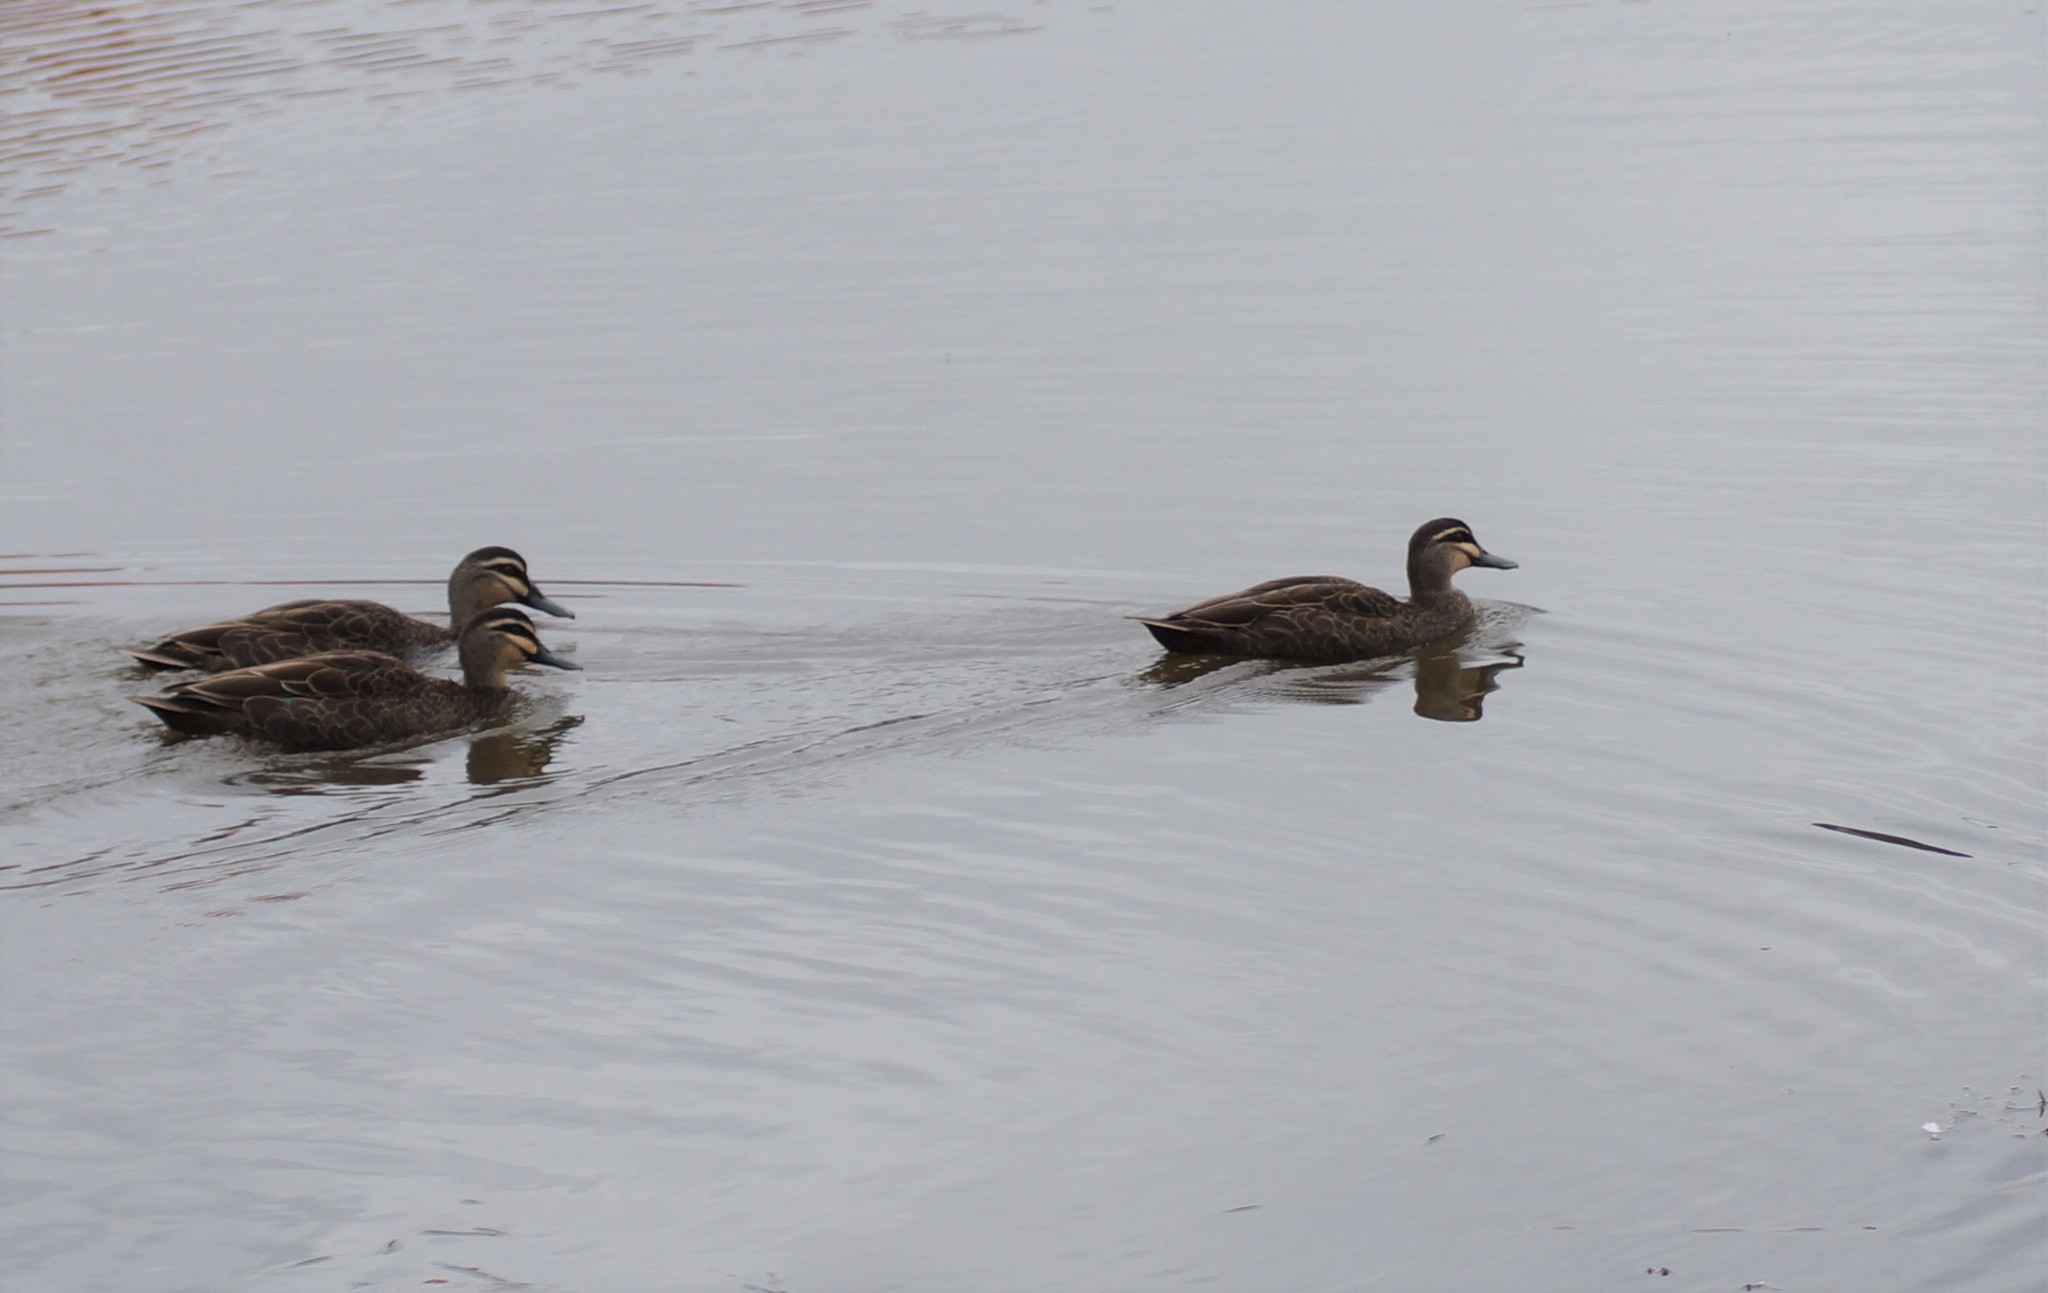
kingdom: Animalia
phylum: Chordata
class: Aves
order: Anseriformes
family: Anatidae
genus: Anas
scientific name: Anas superciliosa
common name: Pacific black duck
